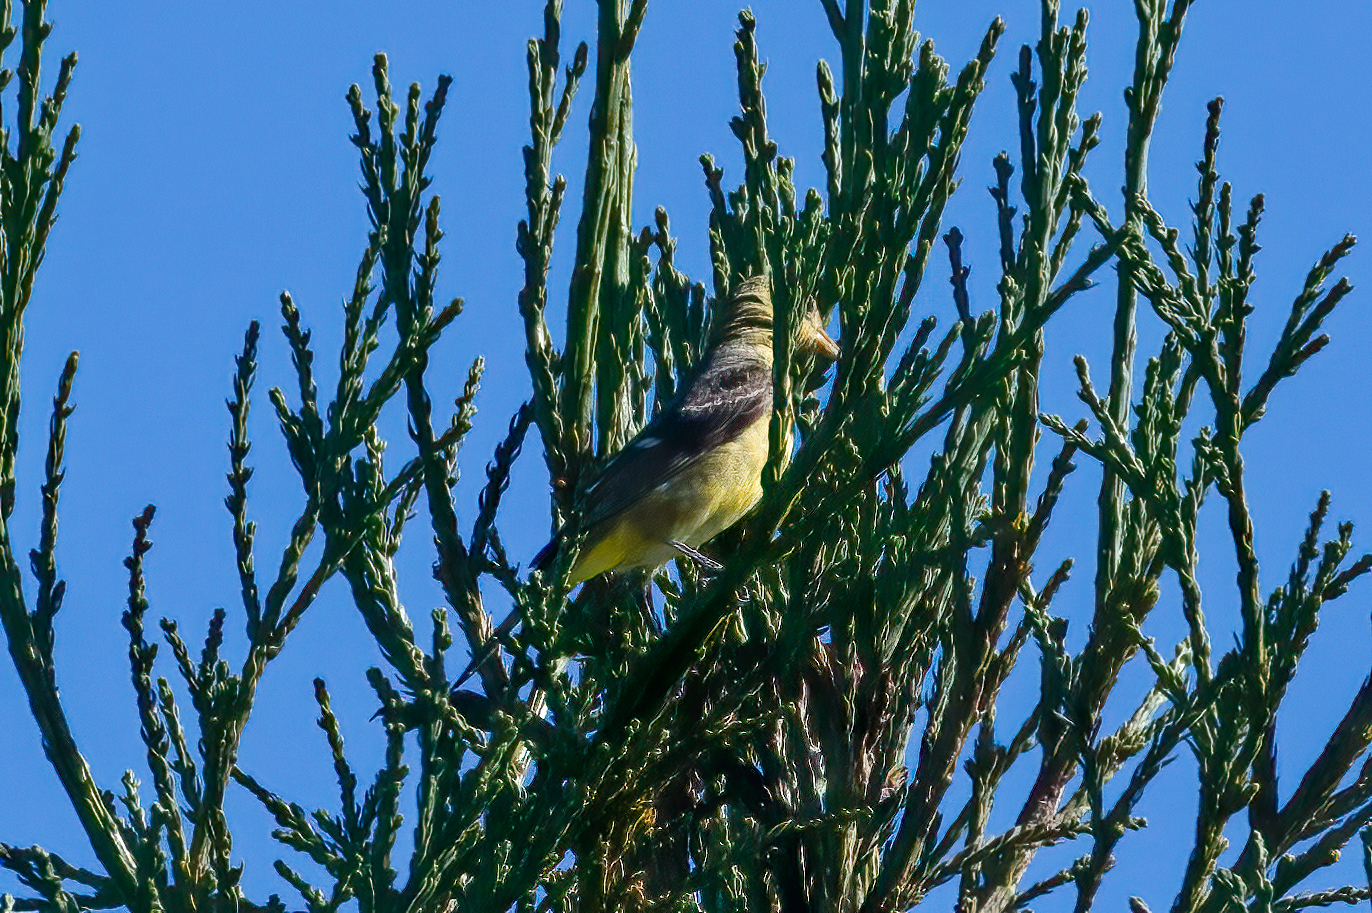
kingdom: Animalia
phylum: Chordata
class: Aves
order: Passeriformes
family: Cardinalidae
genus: Piranga
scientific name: Piranga ludoviciana
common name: Western tanager
